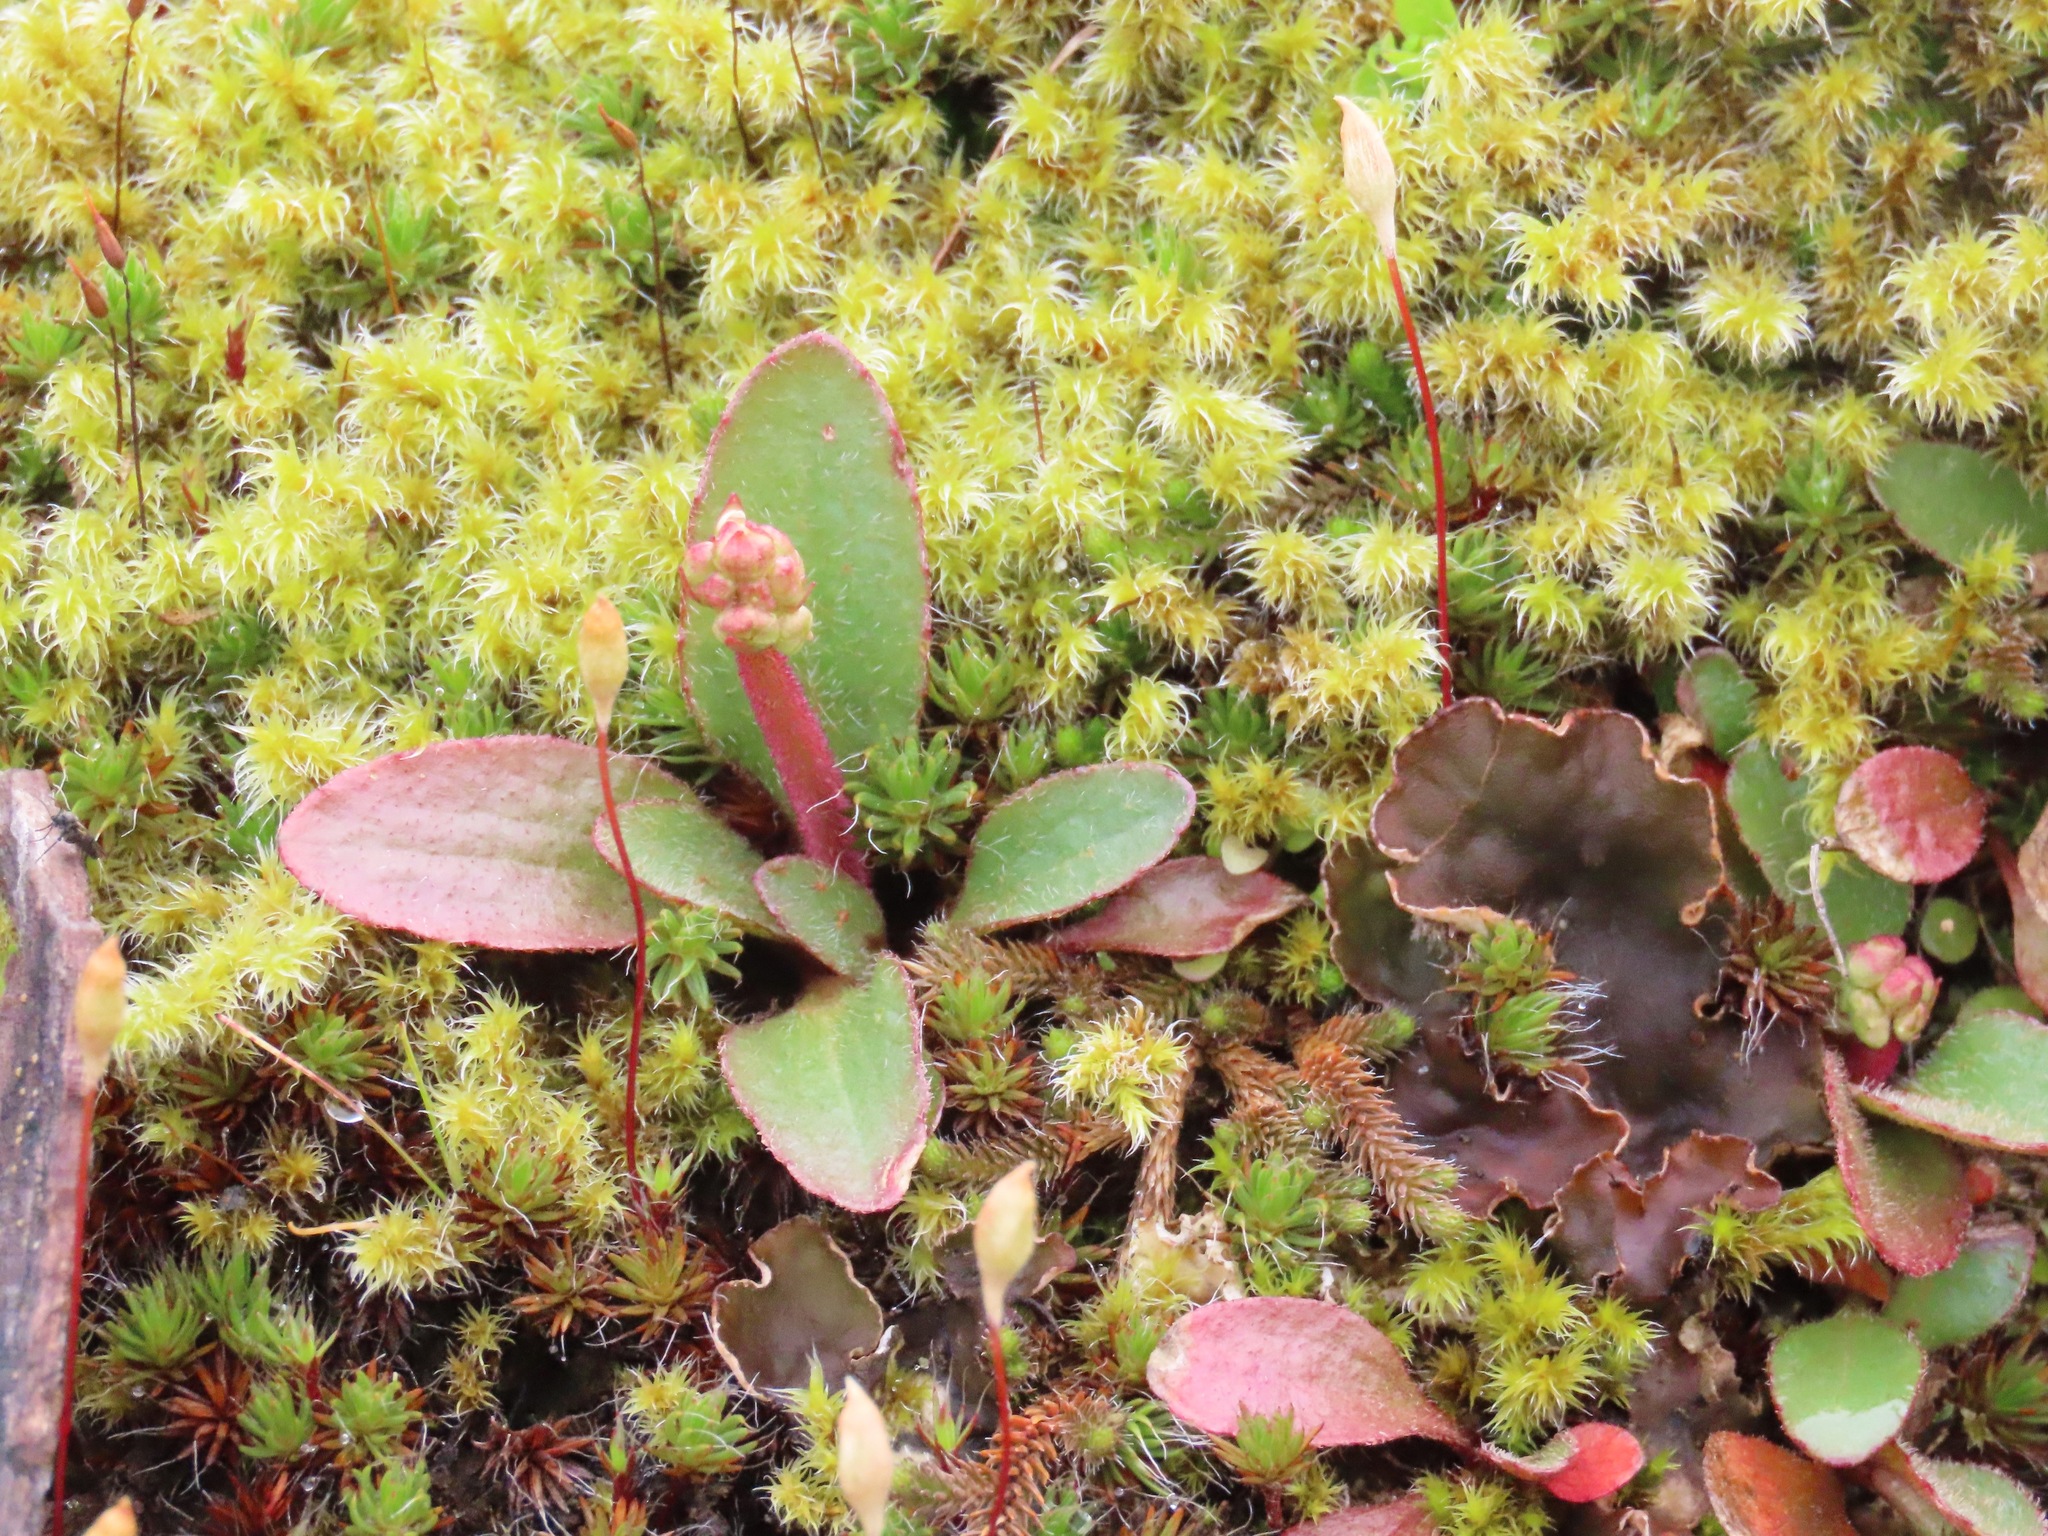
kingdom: Plantae
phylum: Tracheophyta
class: Magnoliopsida
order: Saxifragales
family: Saxifragaceae
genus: Micranthes
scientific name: Micranthes integrifolia
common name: Wholeleaf saxifrage
